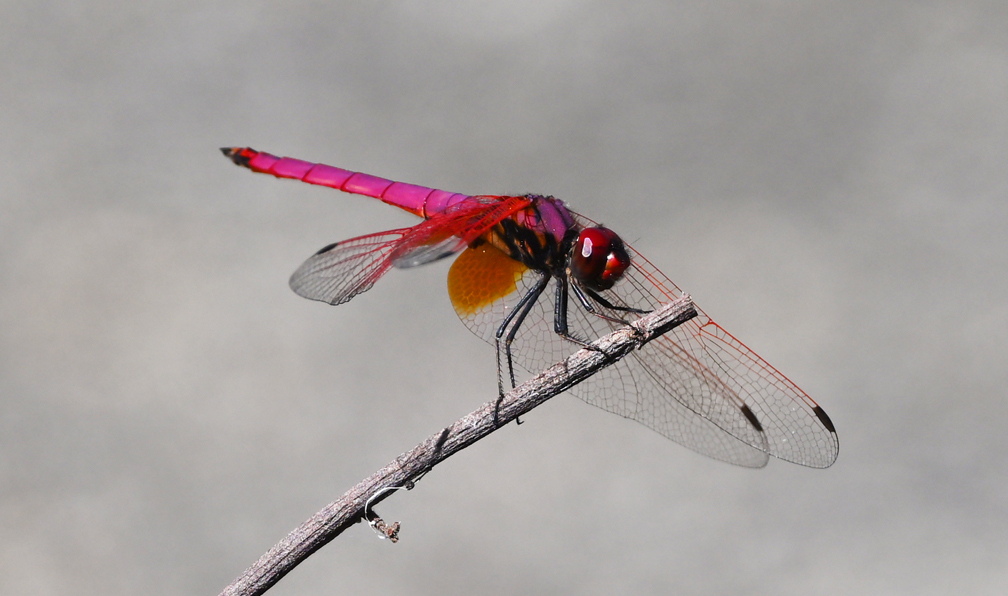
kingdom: Animalia
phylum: Arthropoda
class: Insecta
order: Odonata
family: Libellulidae
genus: Trithemis
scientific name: Trithemis aurora
